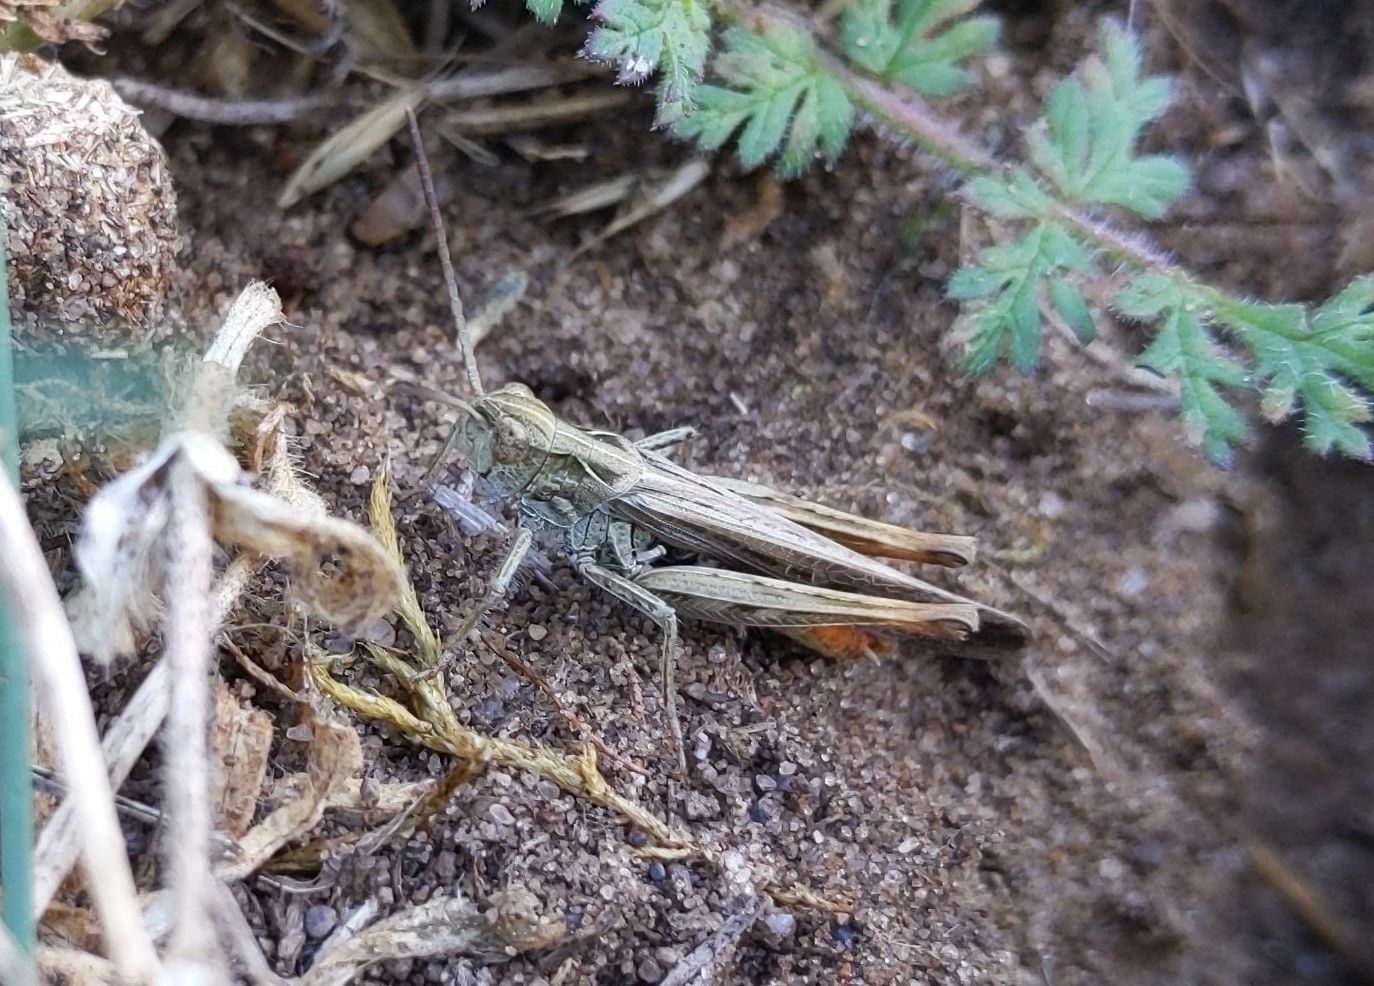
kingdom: Animalia
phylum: Arthropoda
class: Insecta
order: Orthoptera
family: Acrididae
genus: Chorthippus
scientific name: Chorthippus brunneus
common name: Field grasshopper
